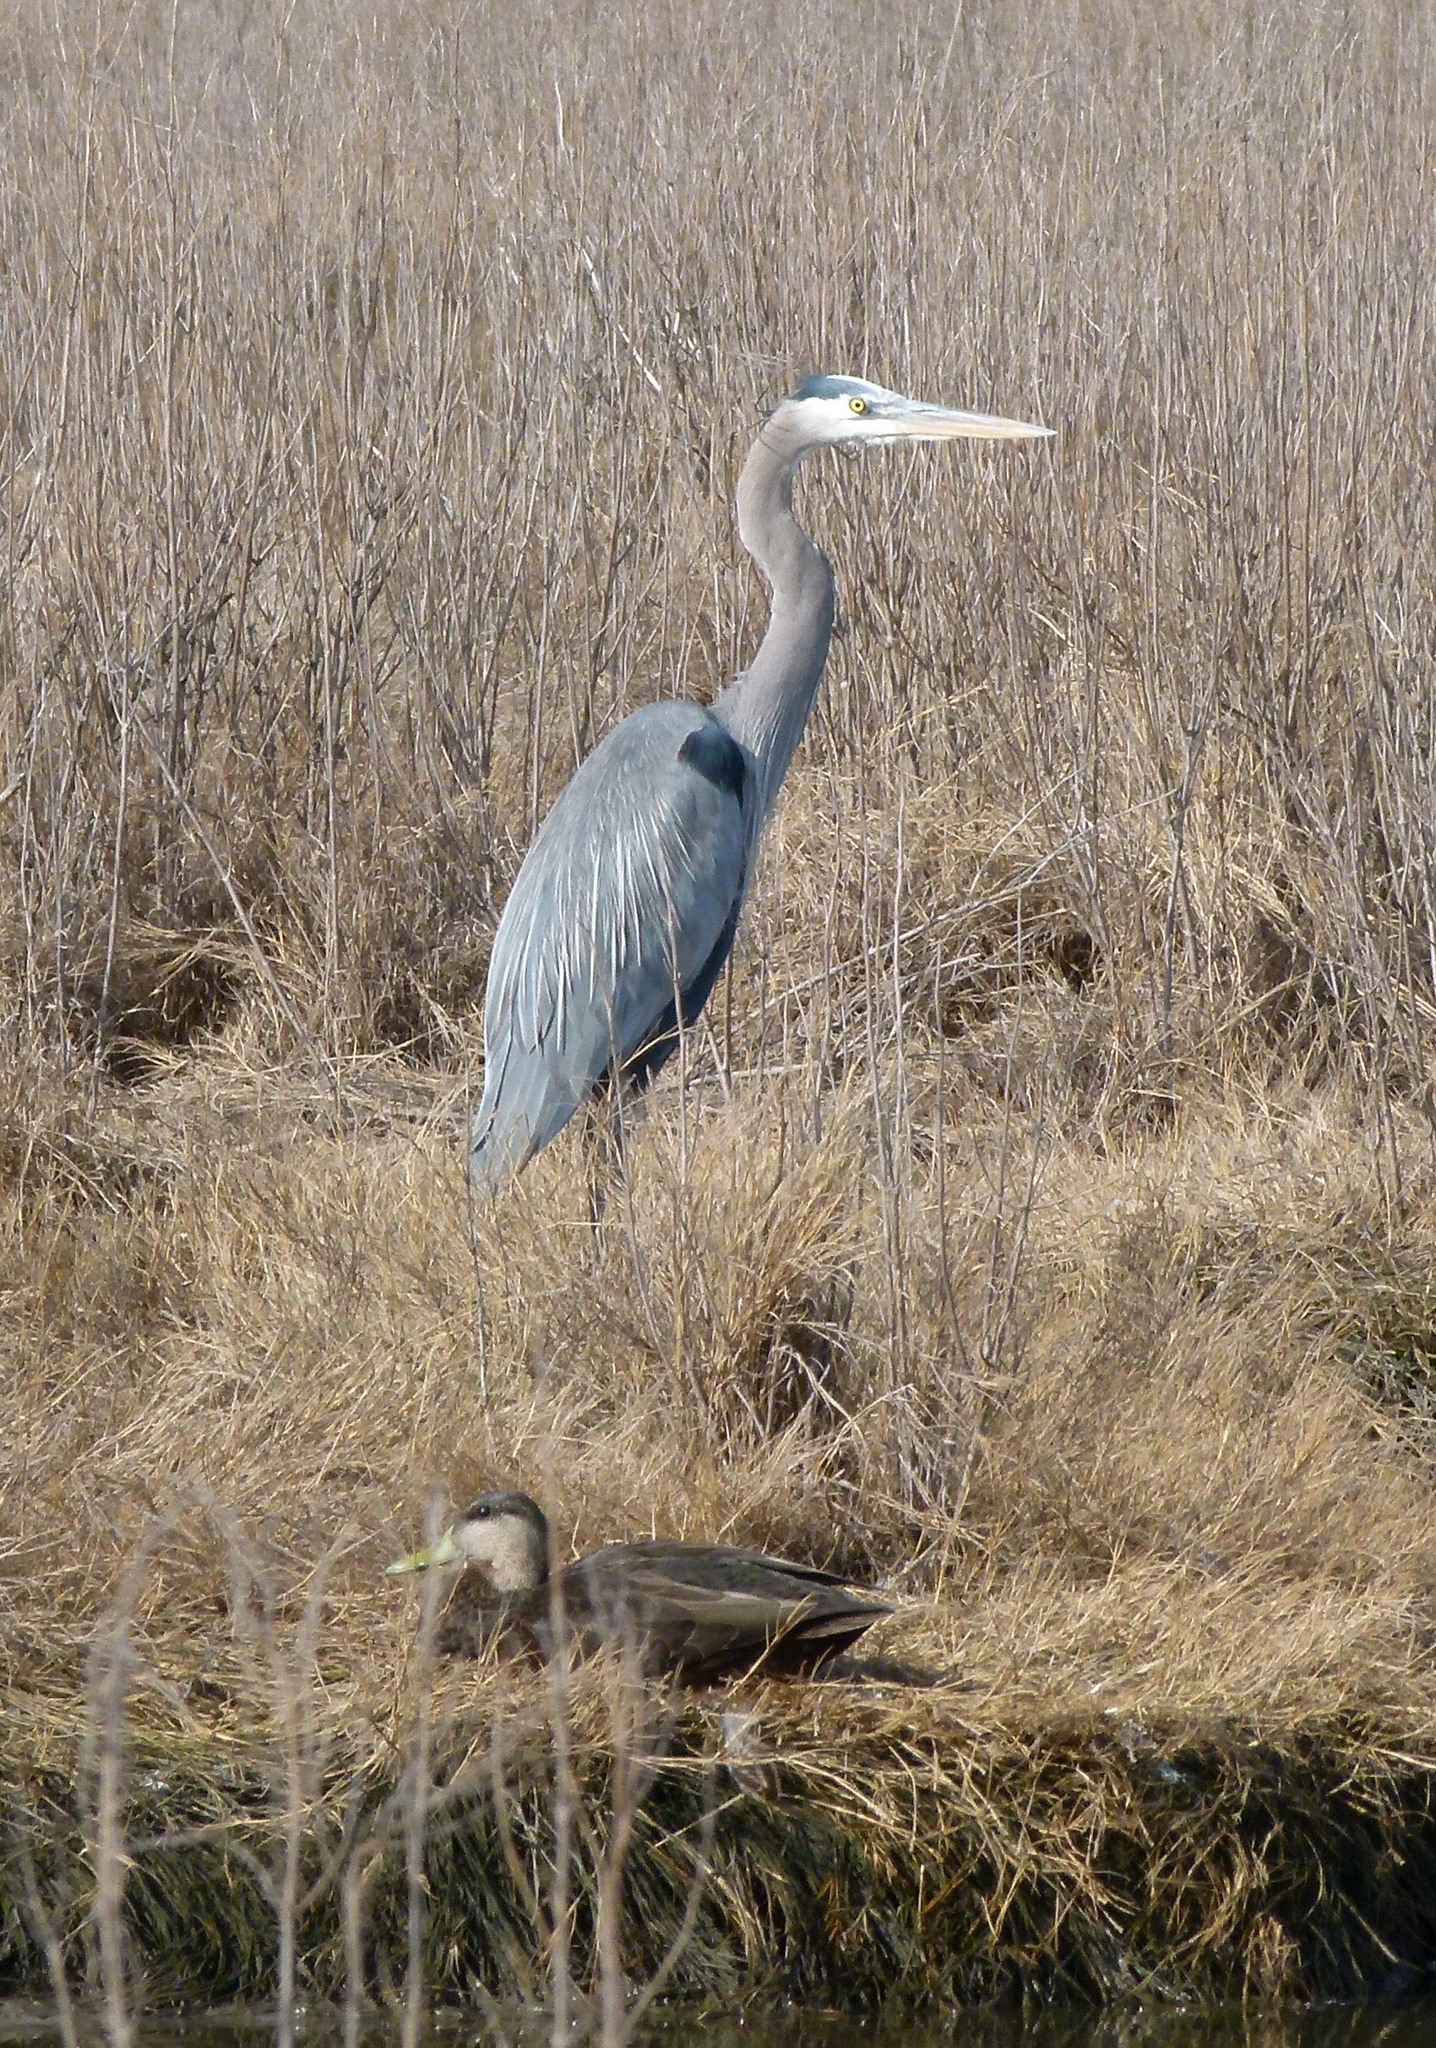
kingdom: Animalia
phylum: Chordata
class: Aves
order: Pelecaniformes
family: Ardeidae
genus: Ardea
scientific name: Ardea herodias
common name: Great blue heron
